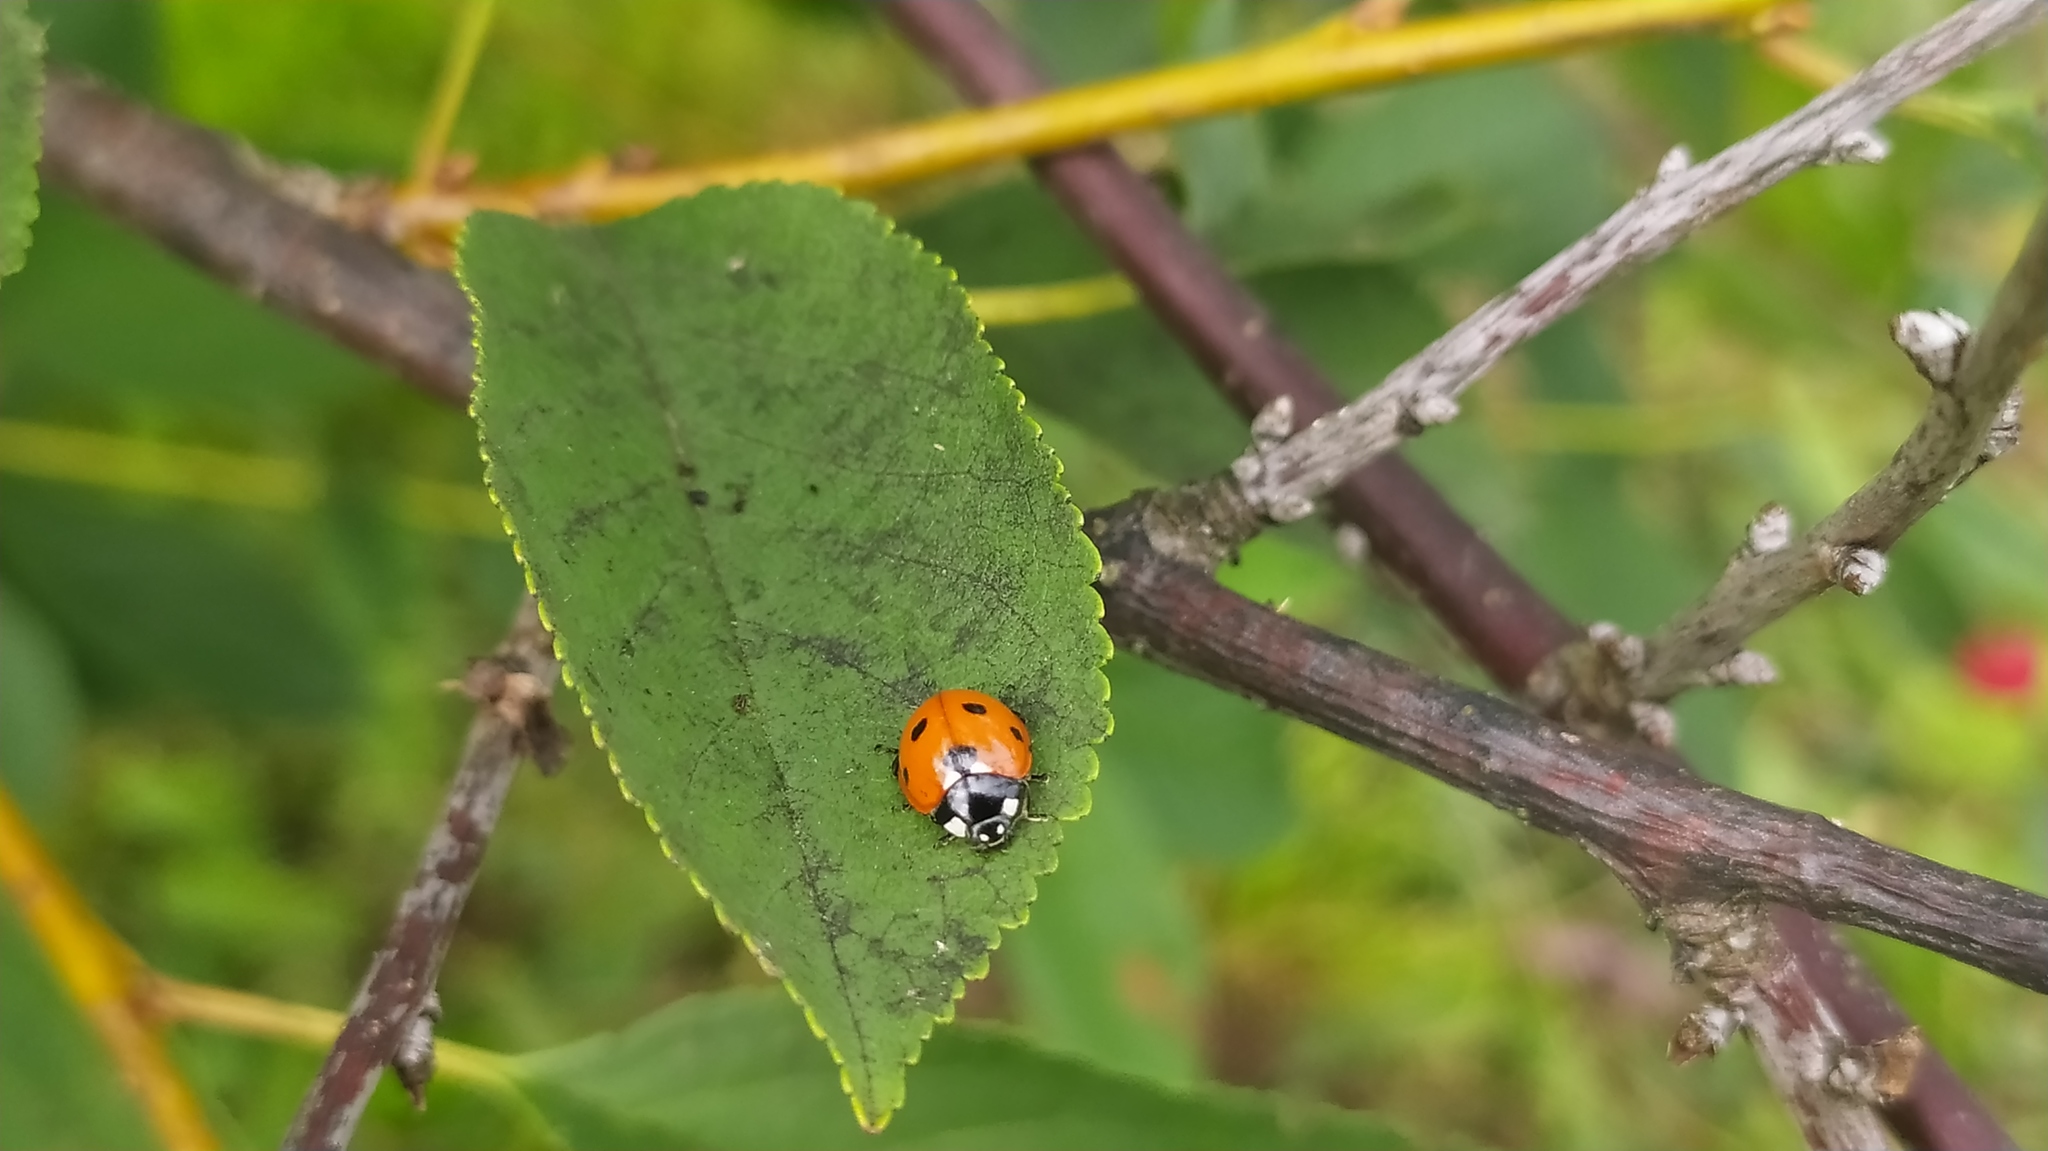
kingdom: Animalia
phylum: Arthropoda
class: Insecta
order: Coleoptera
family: Coccinellidae
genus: Coccinella
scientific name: Coccinella septempunctata
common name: Sevenspotted lady beetle
